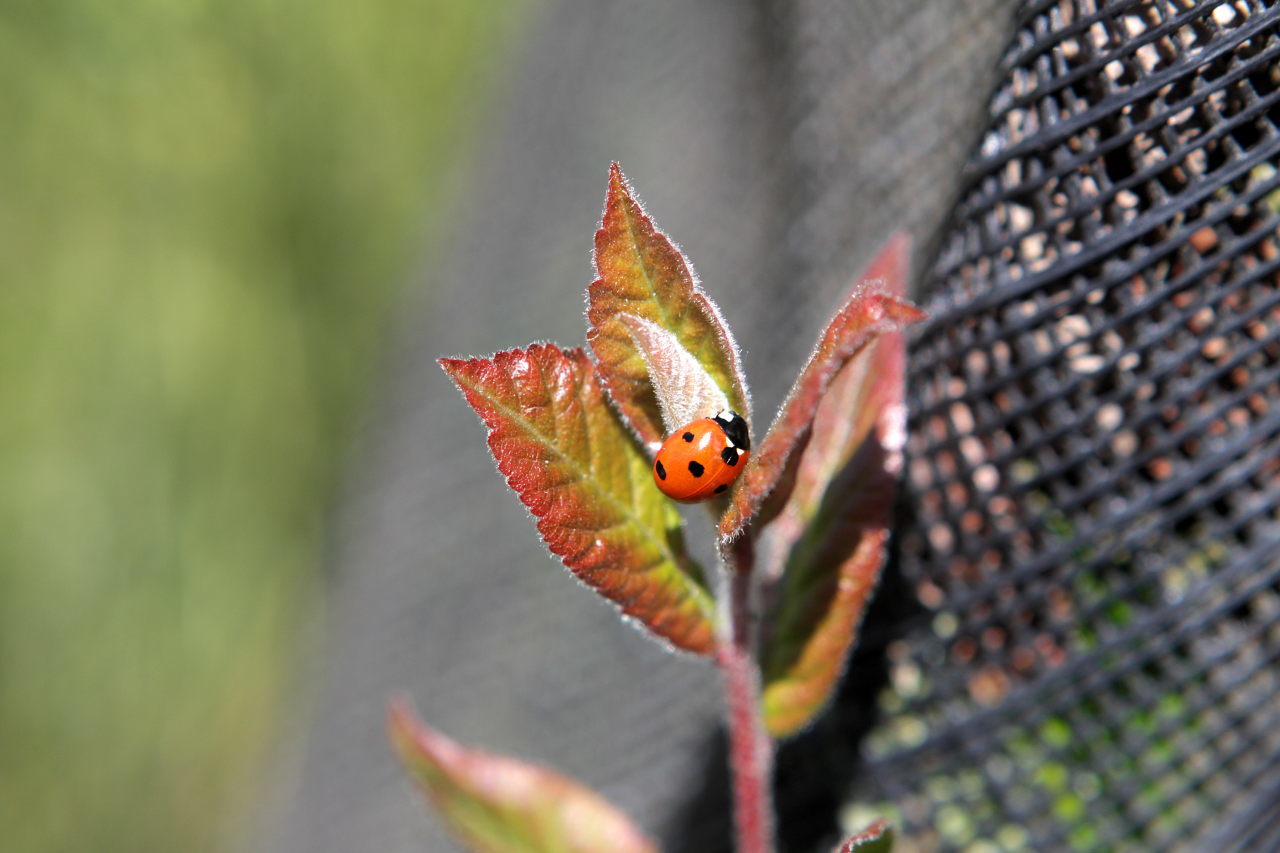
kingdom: Animalia
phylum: Arthropoda
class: Insecta
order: Coleoptera
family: Coccinellidae
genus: Coccinella
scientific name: Coccinella septempunctata
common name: Sevenspotted lady beetle
